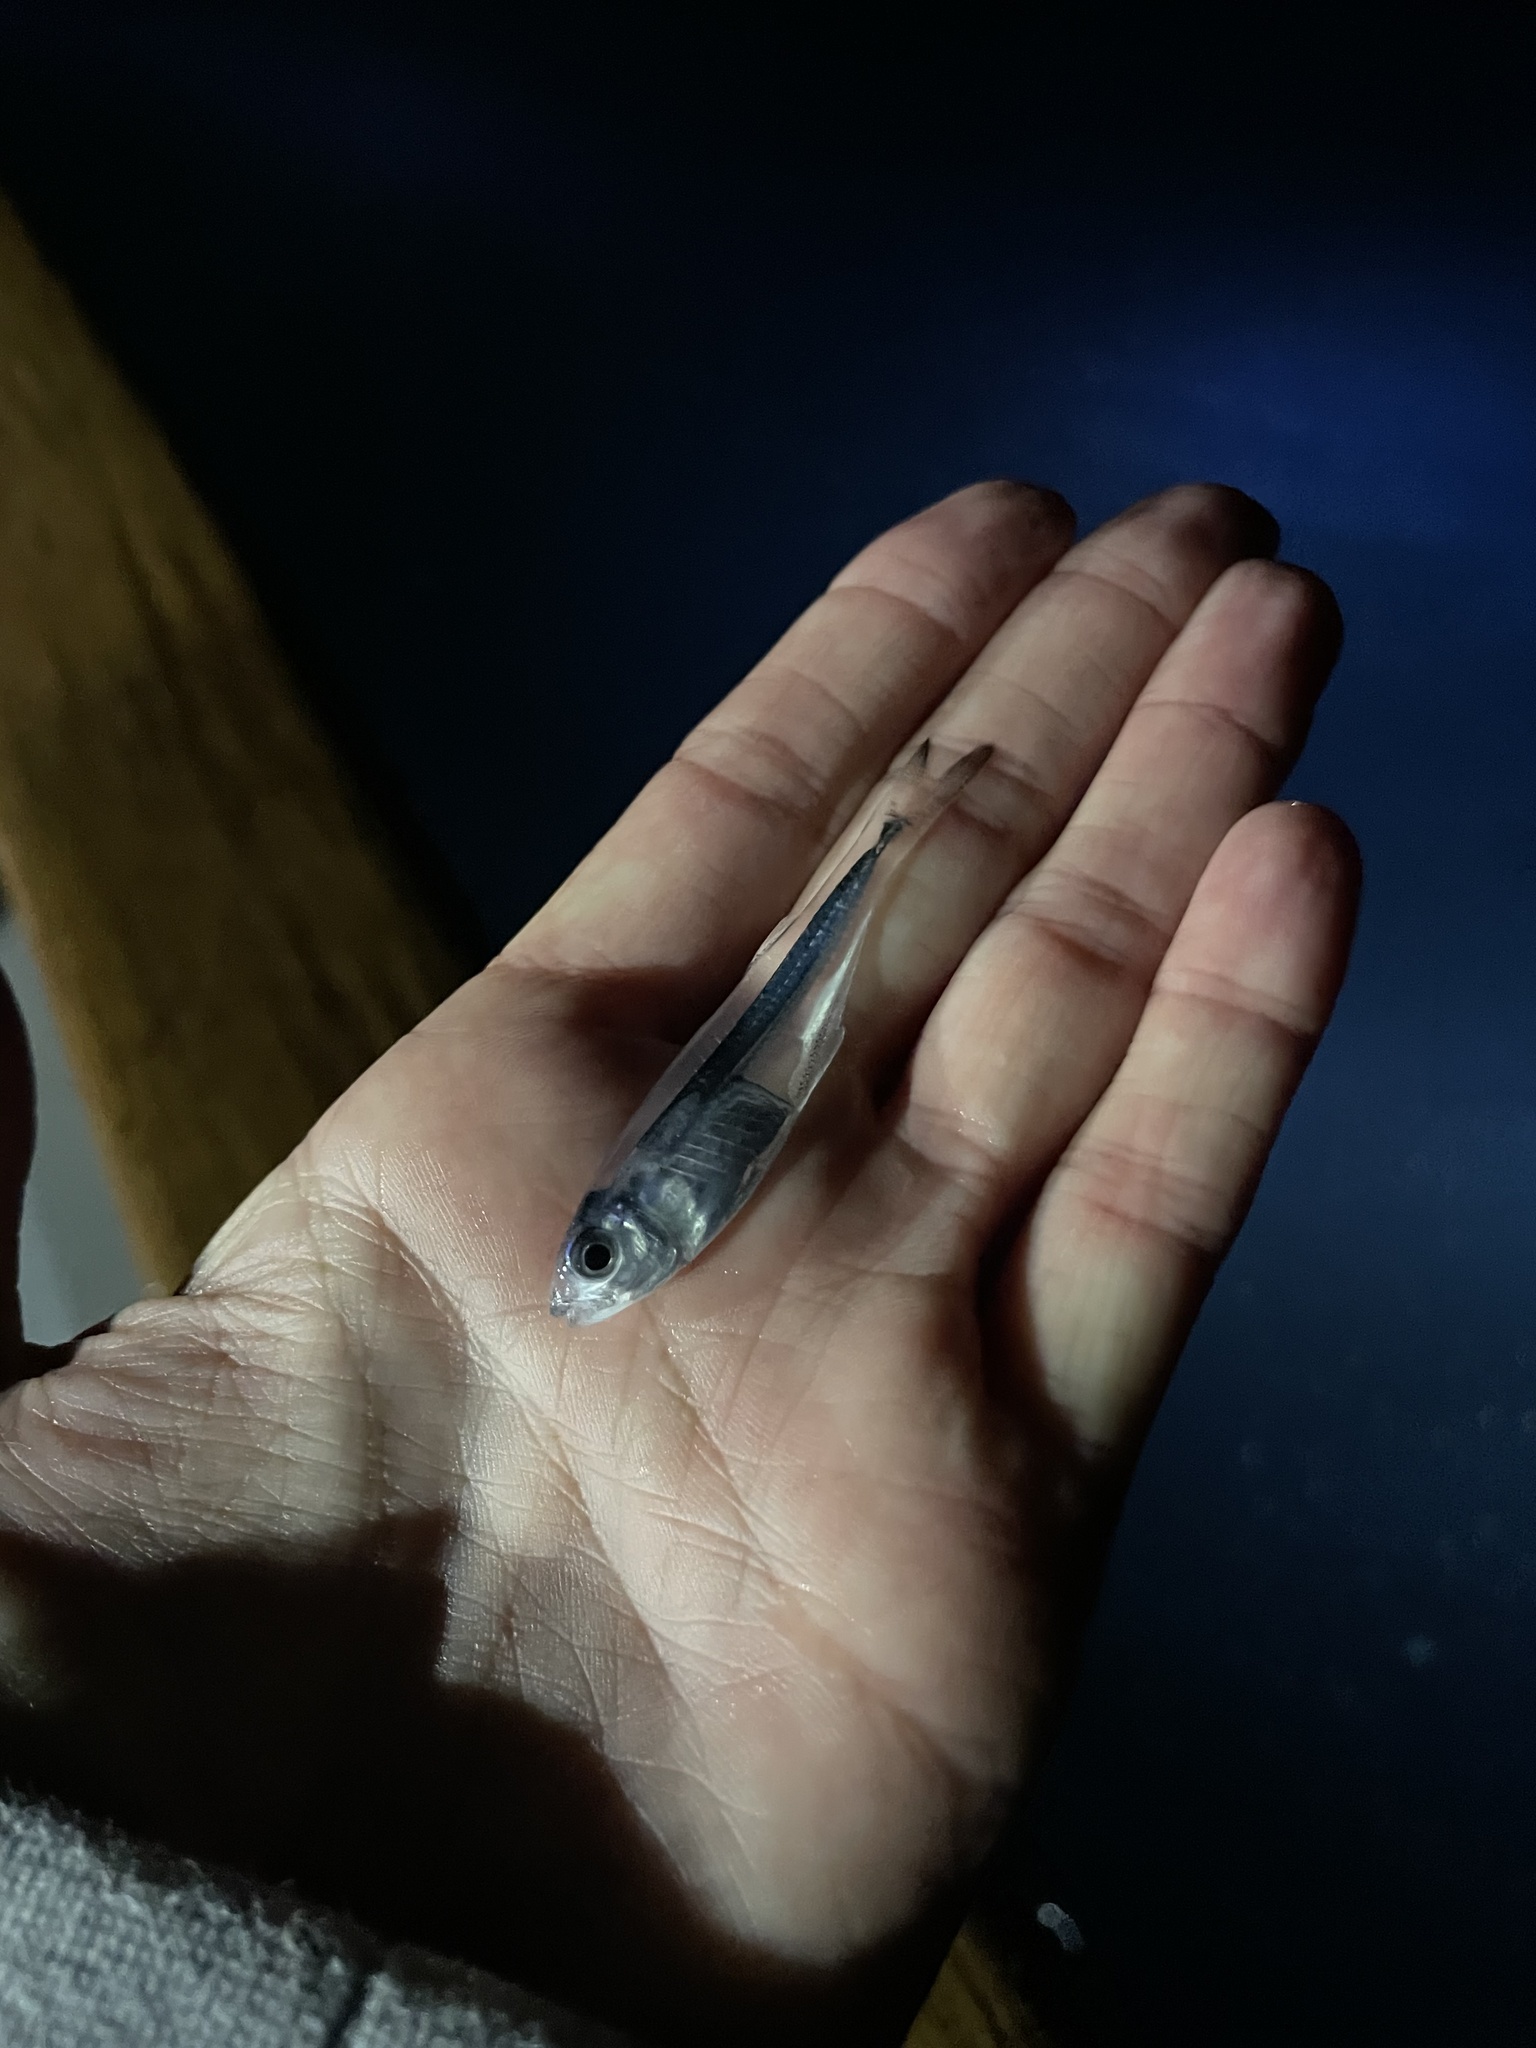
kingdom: Animalia
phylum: Chordata
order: Atheriniformes
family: Atherinopsidae
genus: Atherinella
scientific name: Atherinella eriarcha
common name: Longfin silverside
